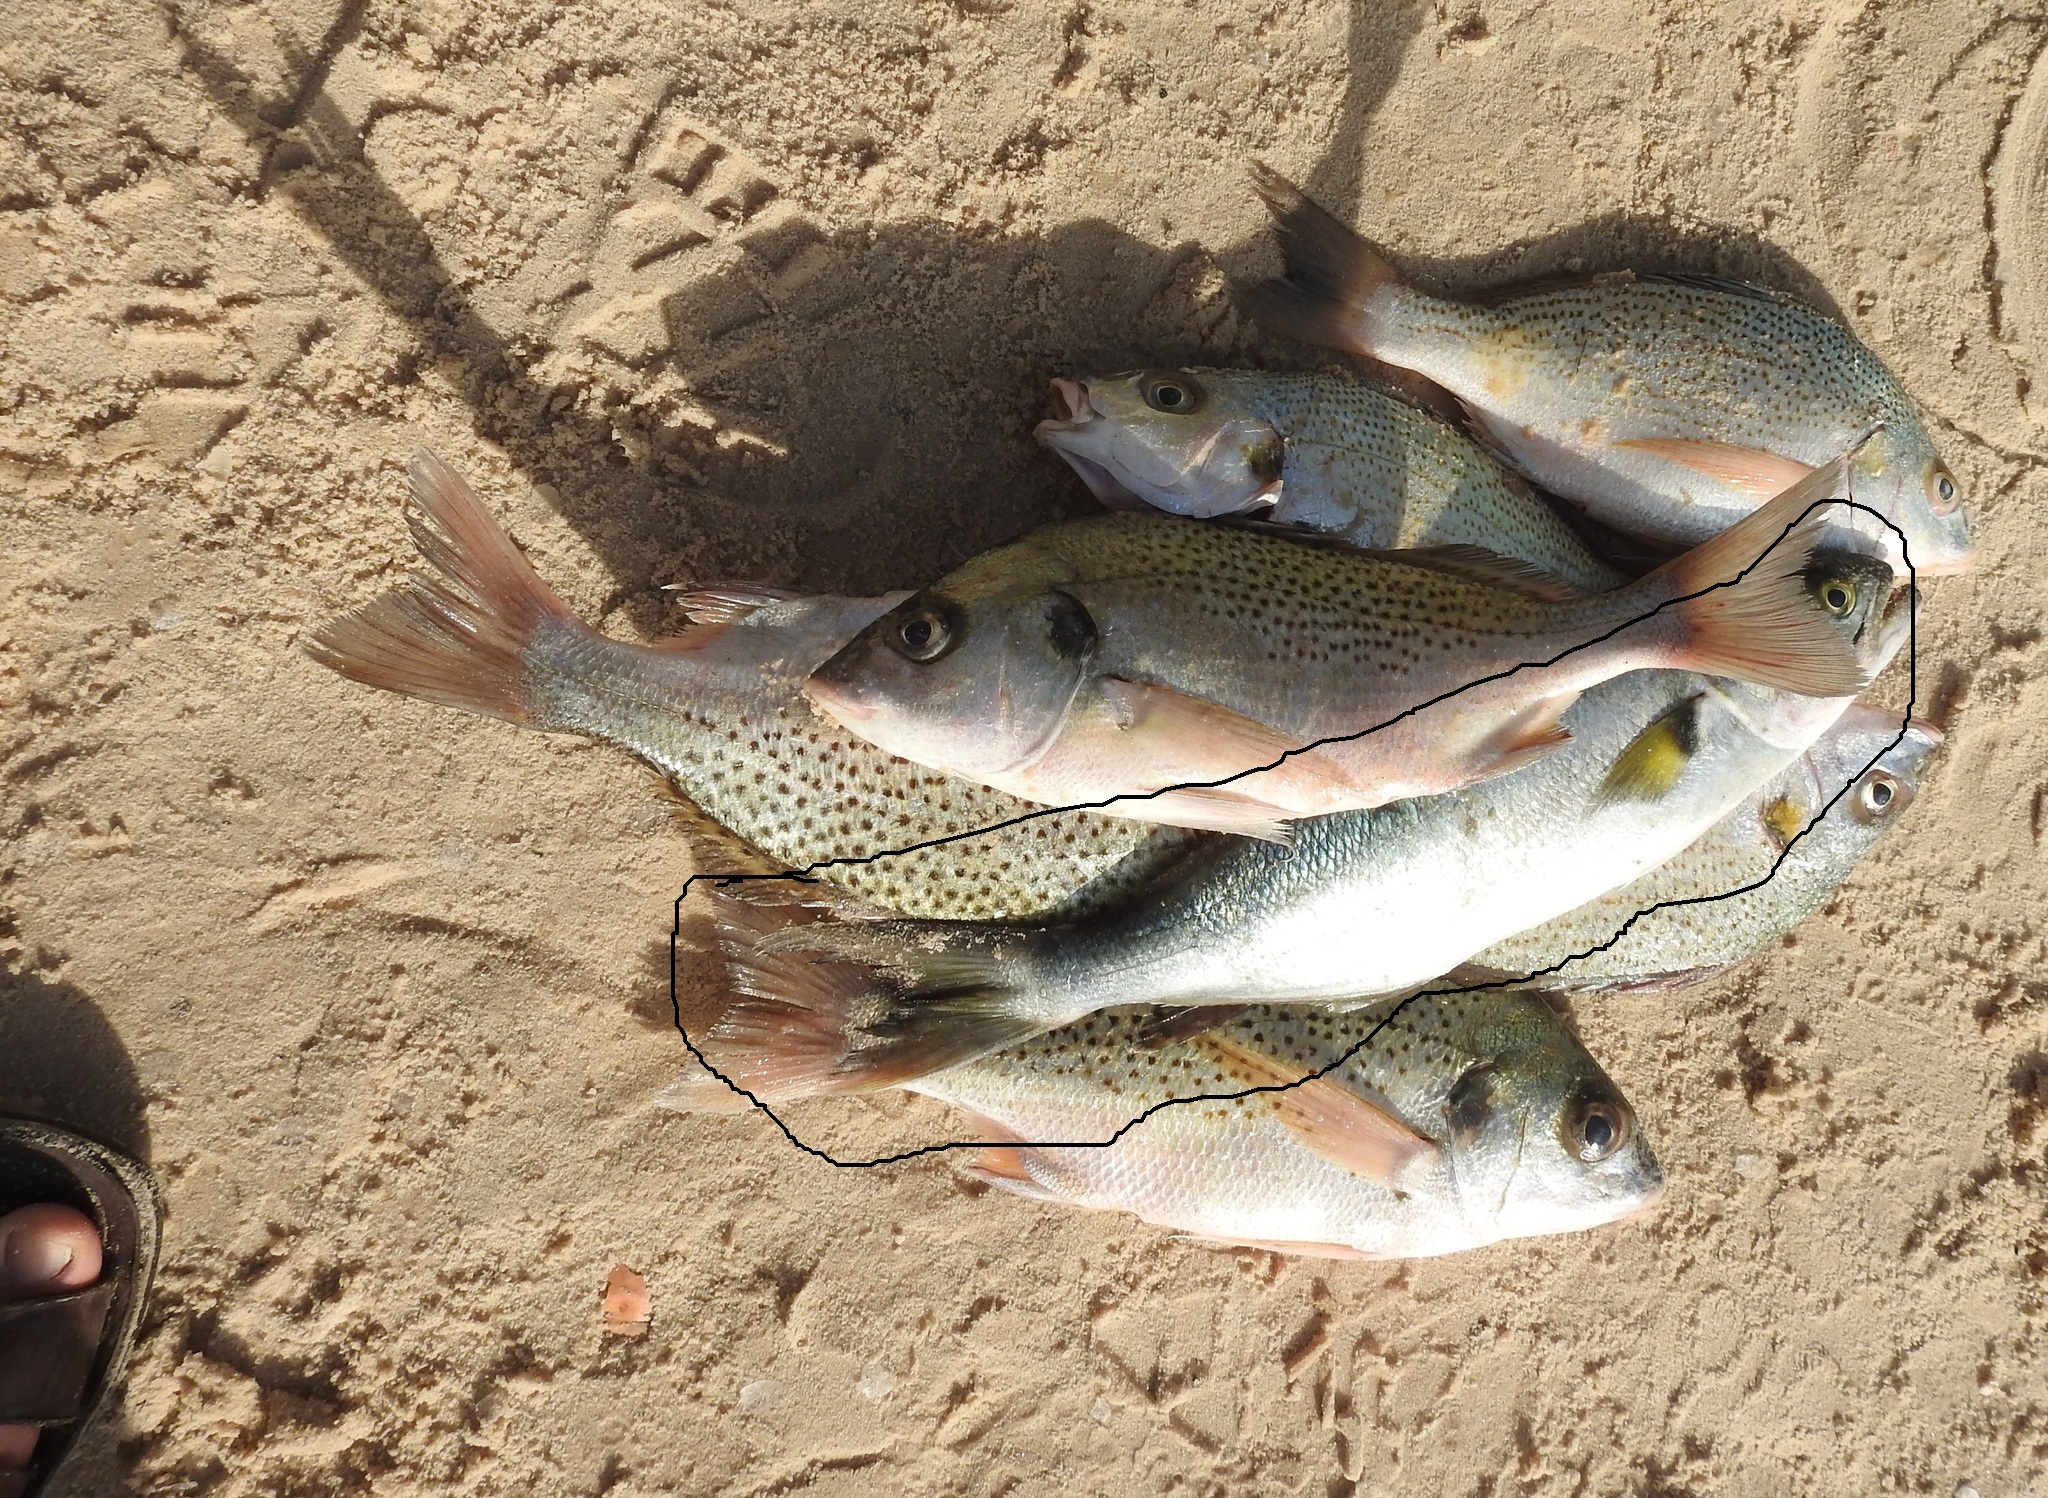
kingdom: Animalia
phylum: Chordata
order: Perciformes
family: Pomatomidae
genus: Pomatomus
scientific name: Pomatomus saltatrix
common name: Bluefish
